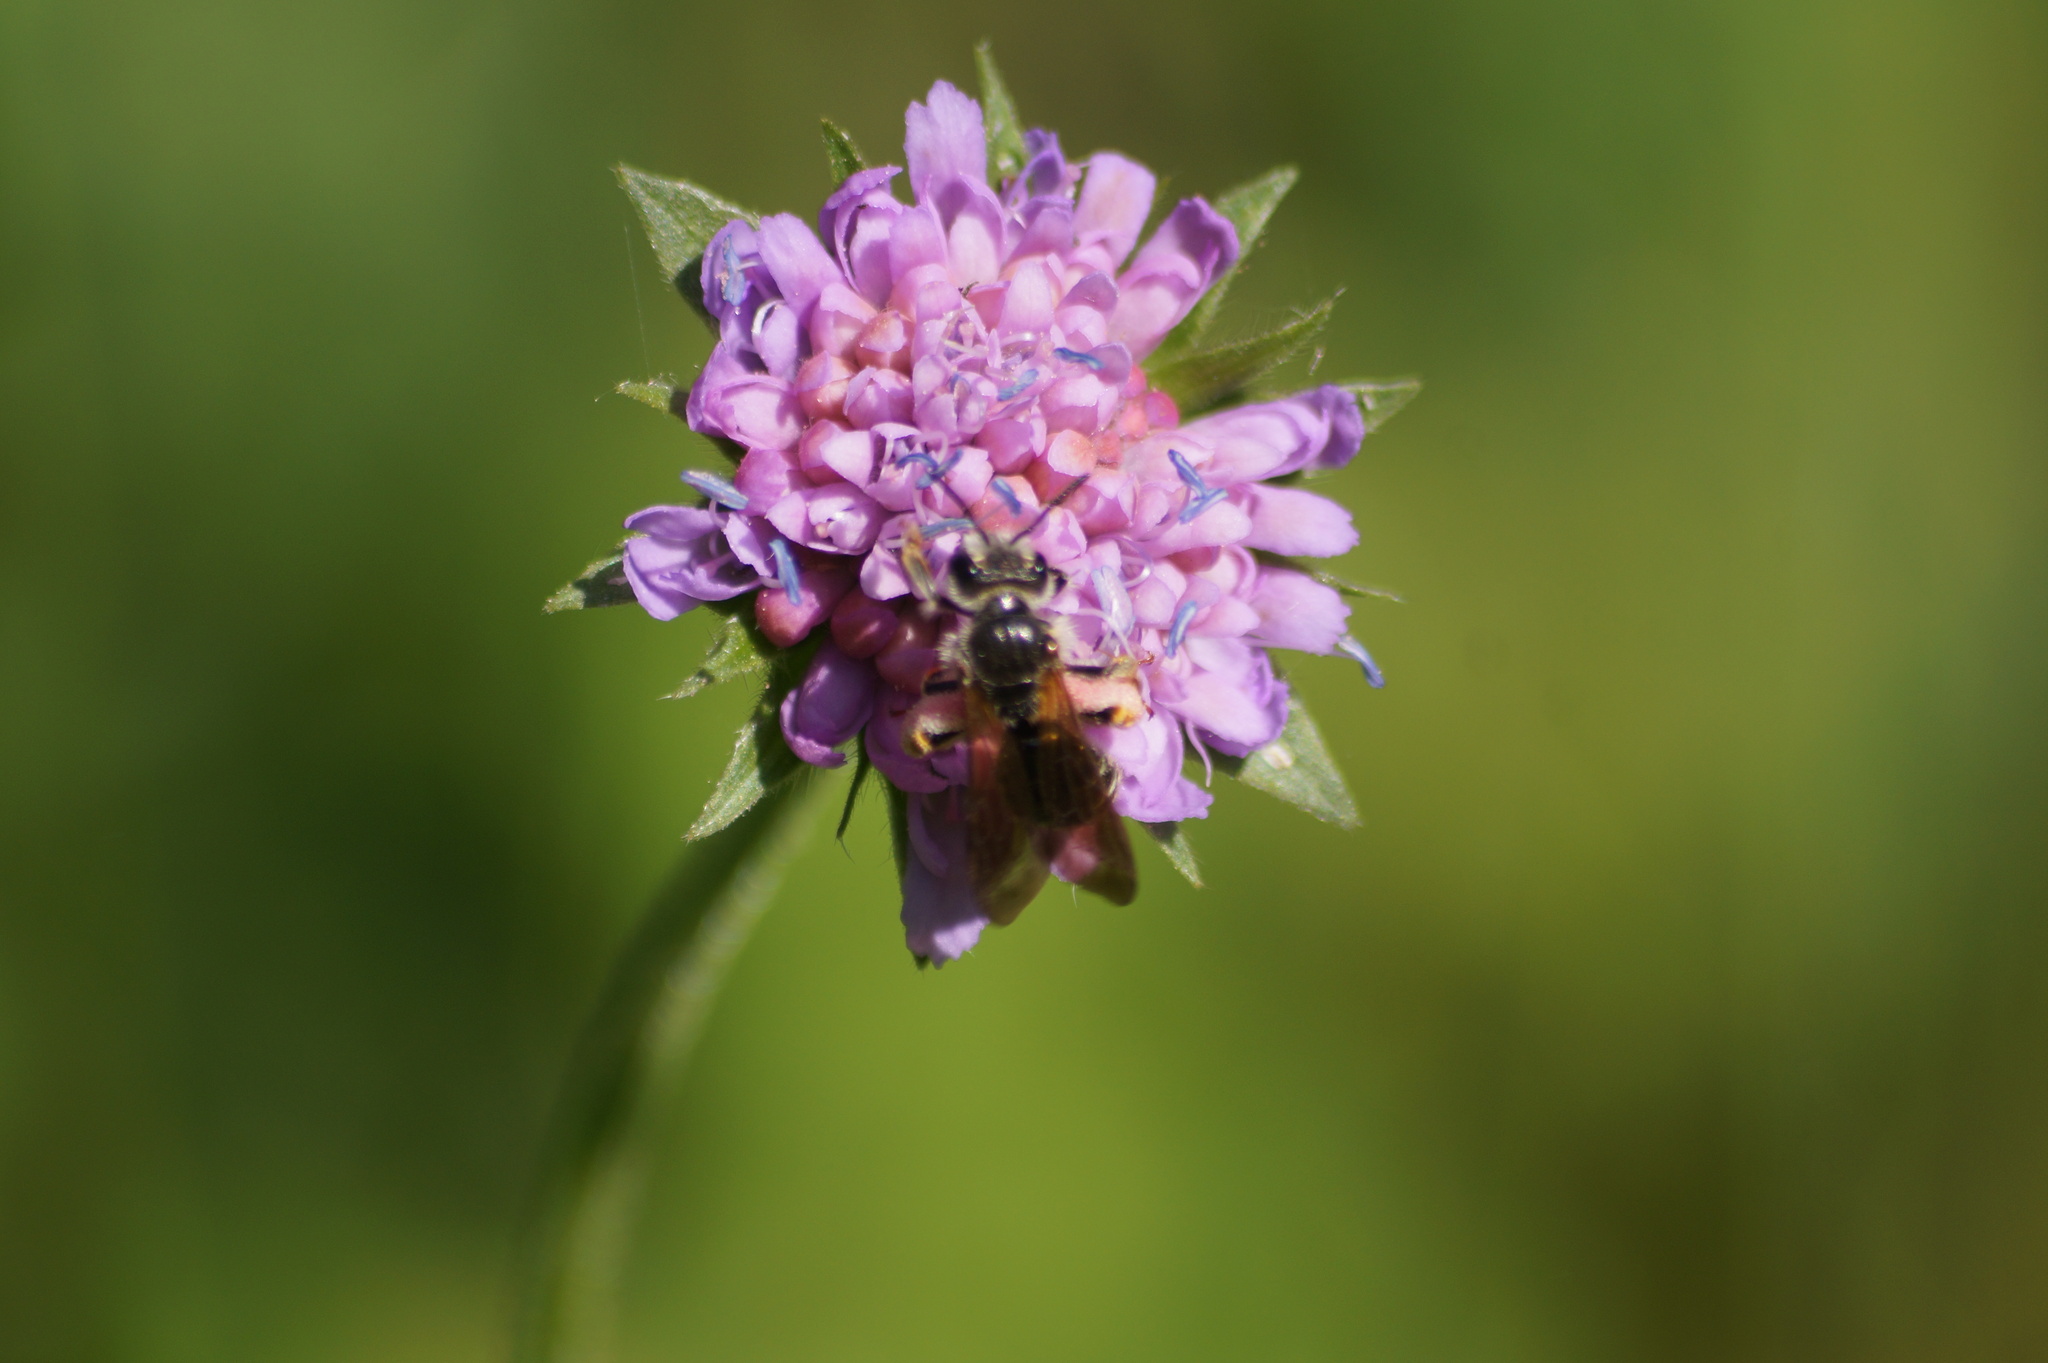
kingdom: Animalia
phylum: Arthropoda
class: Insecta
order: Hymenoptera
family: Andrenidae
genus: Andrena
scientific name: Andrena hattorfiana
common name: Large scabious mining bee
